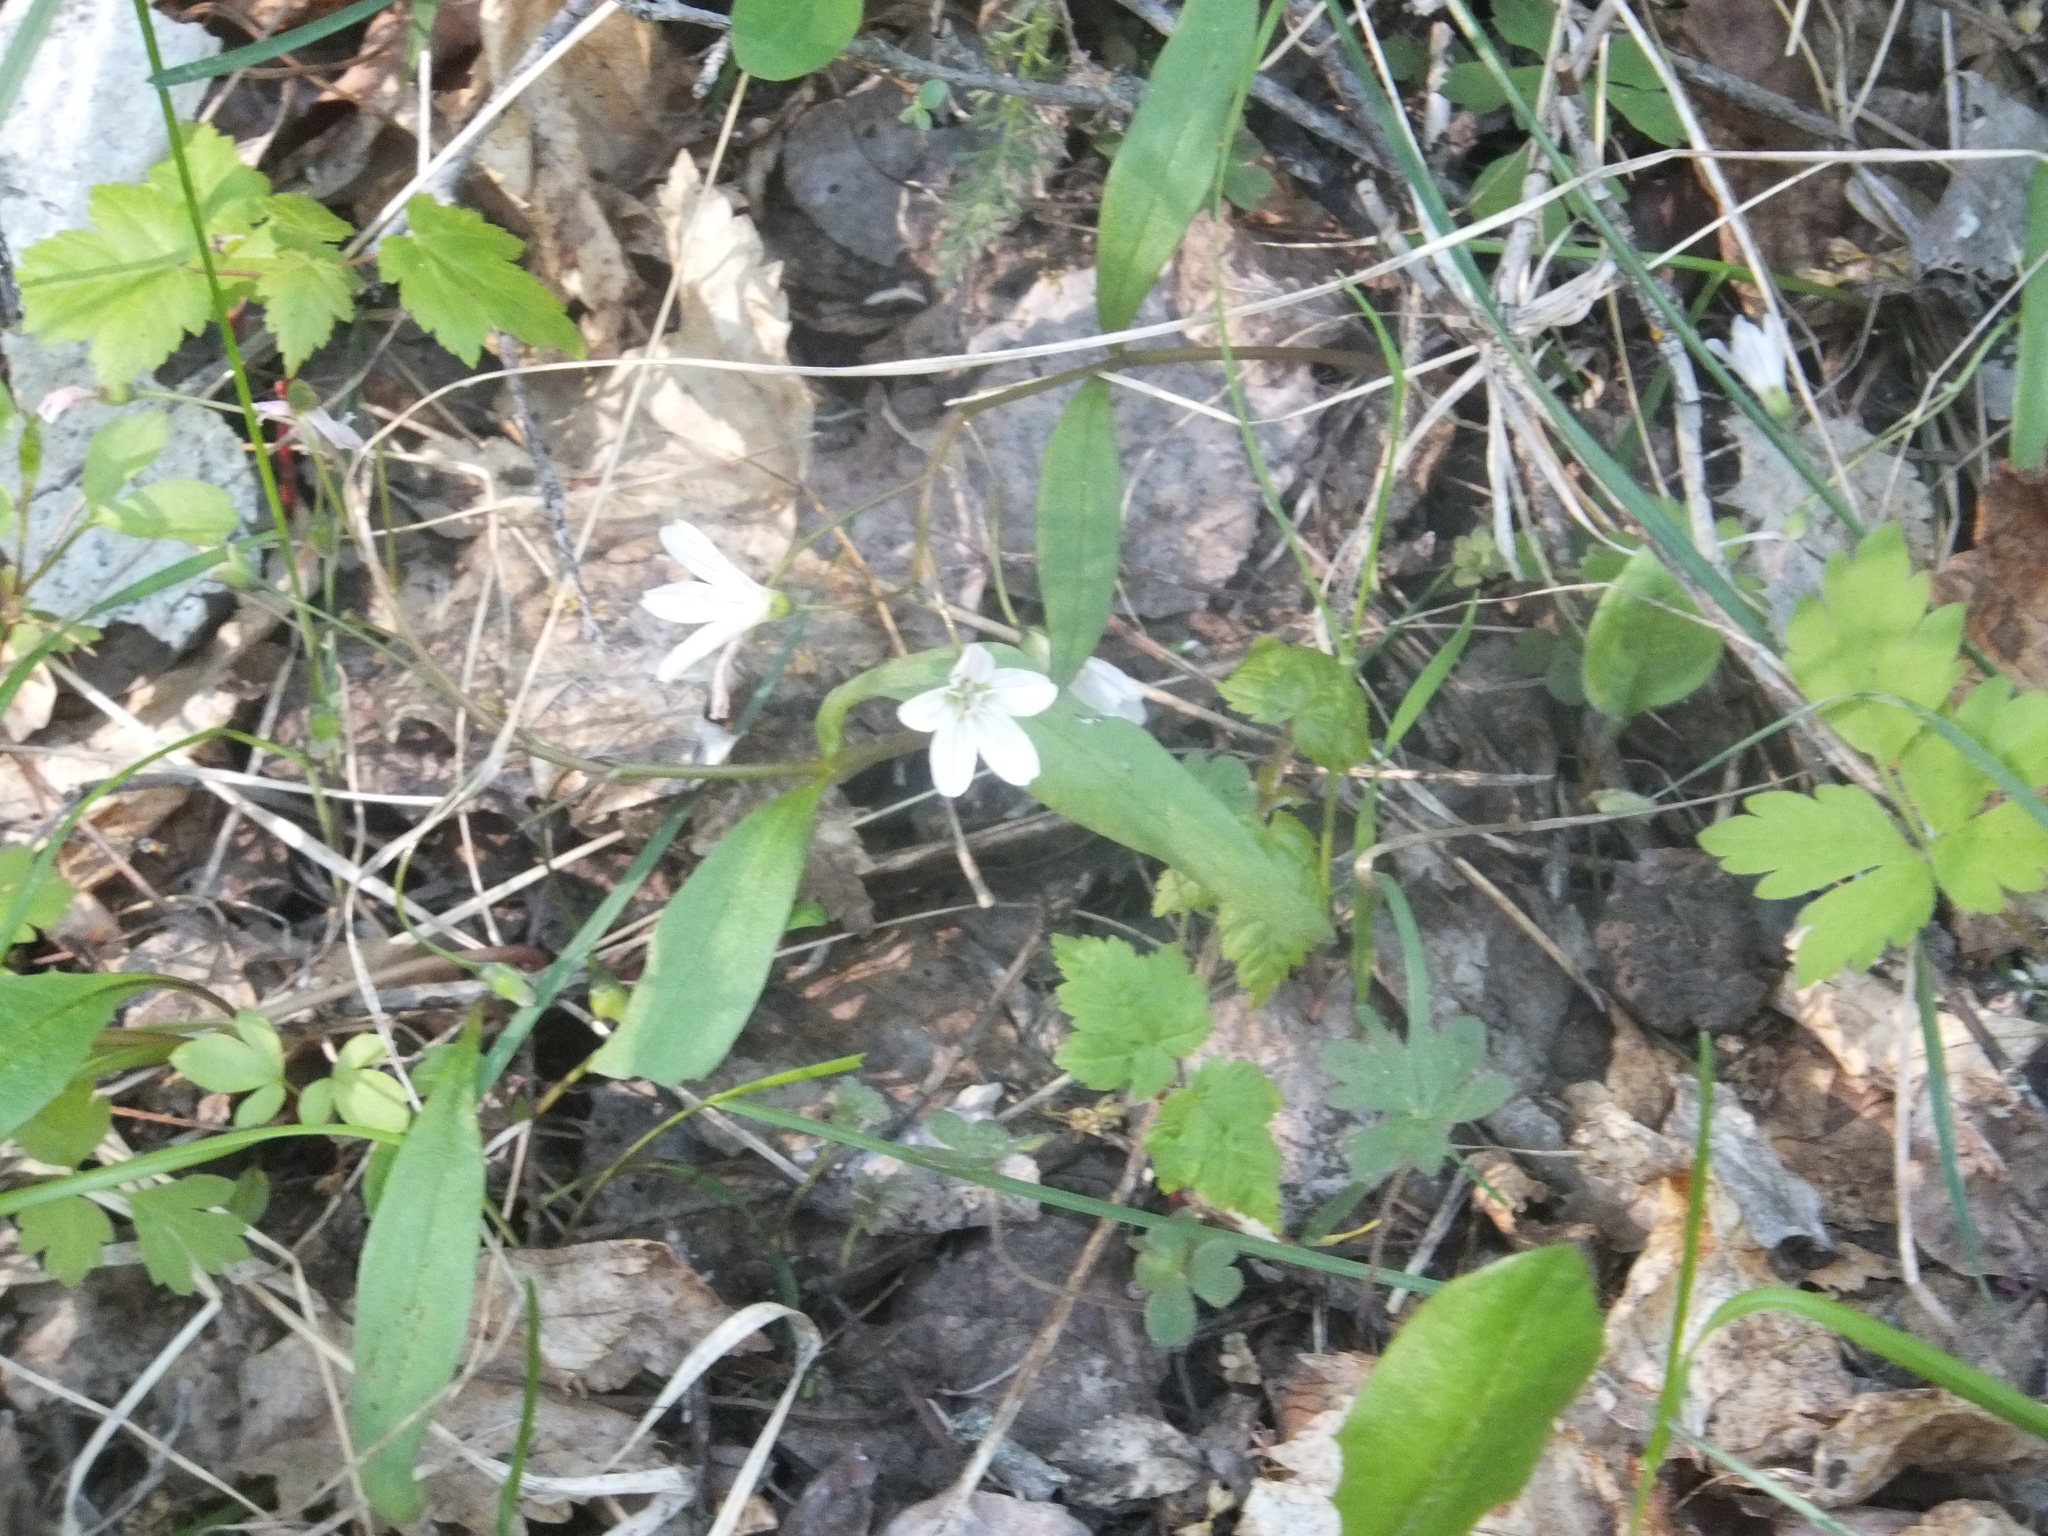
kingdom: Plantae
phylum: Tracheophyta
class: Magnoliopsida
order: Caryophyllales
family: Montiaceae
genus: Claytonia
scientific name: Claytonia lanceolata
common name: Western spring-beauty
